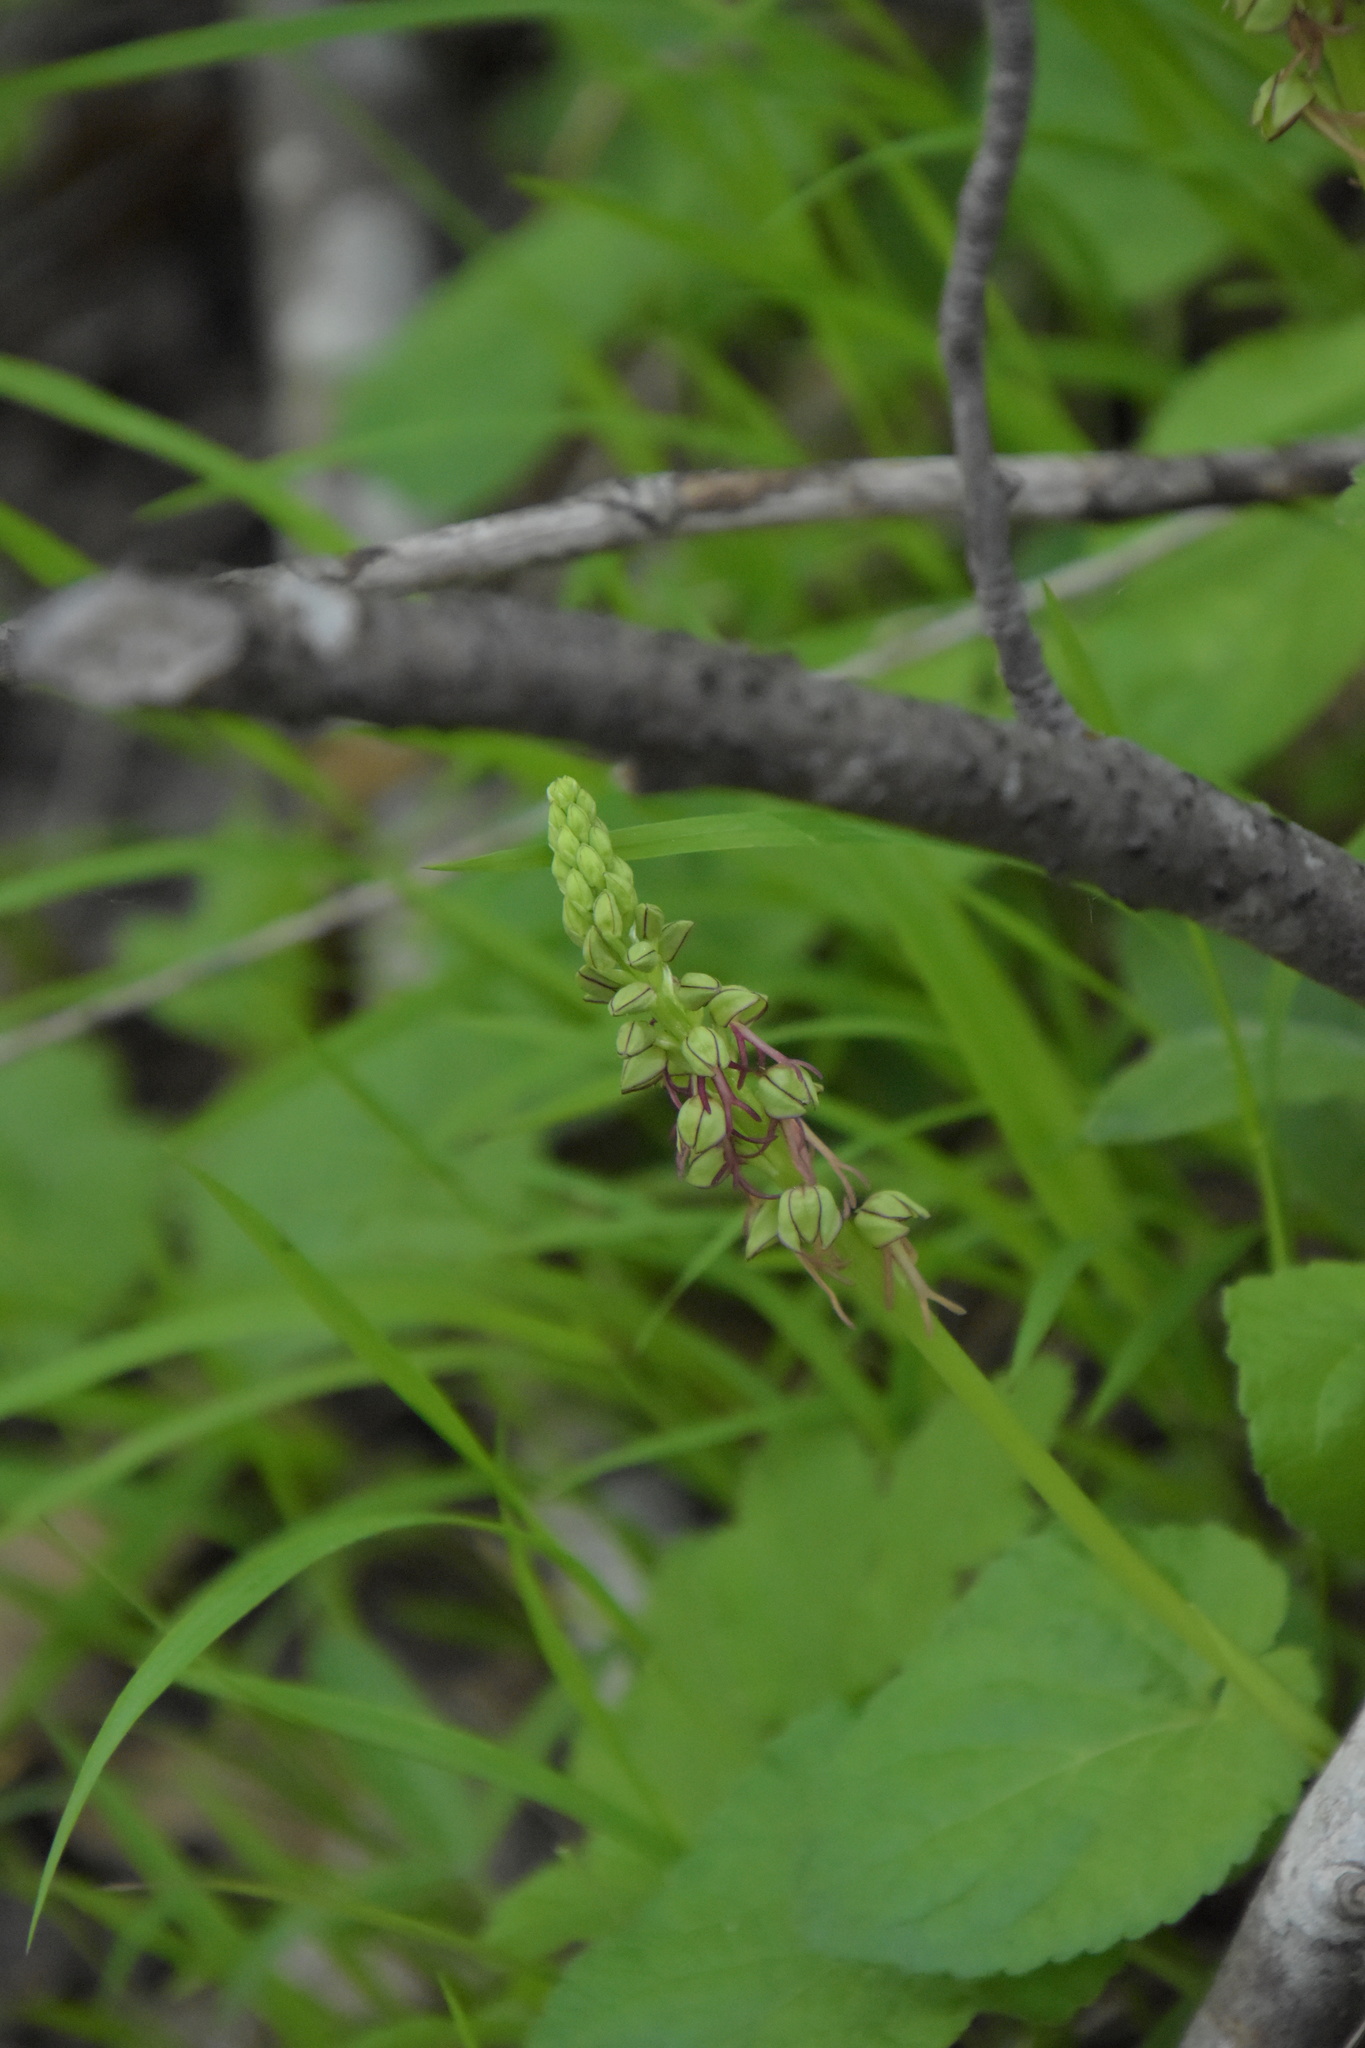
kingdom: Plantae
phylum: Tracheophyta
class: Liliopsida
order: Asparagales
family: Orchidaceae
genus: Orchis
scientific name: Orchis anthropophora
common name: Man orchid
